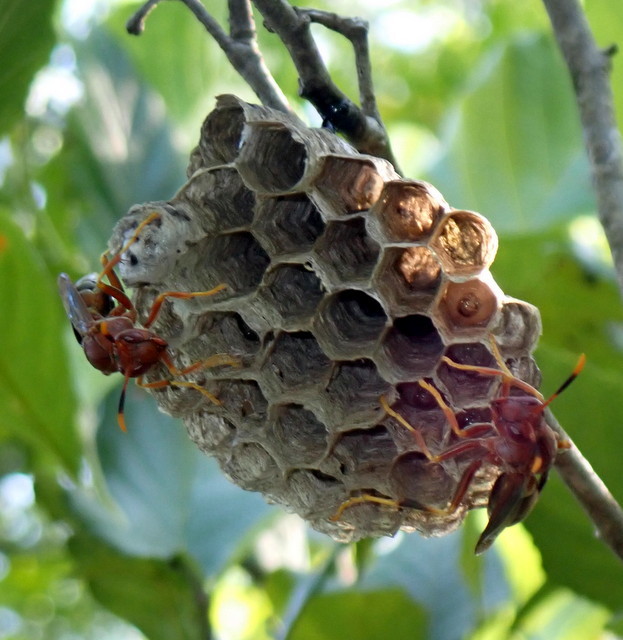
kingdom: Animalia
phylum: Arthropoda
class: Insecta
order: Hymenoptera
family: Eumenidae
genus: Polistes
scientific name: Polistes annularis
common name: Ringed paper wasp
